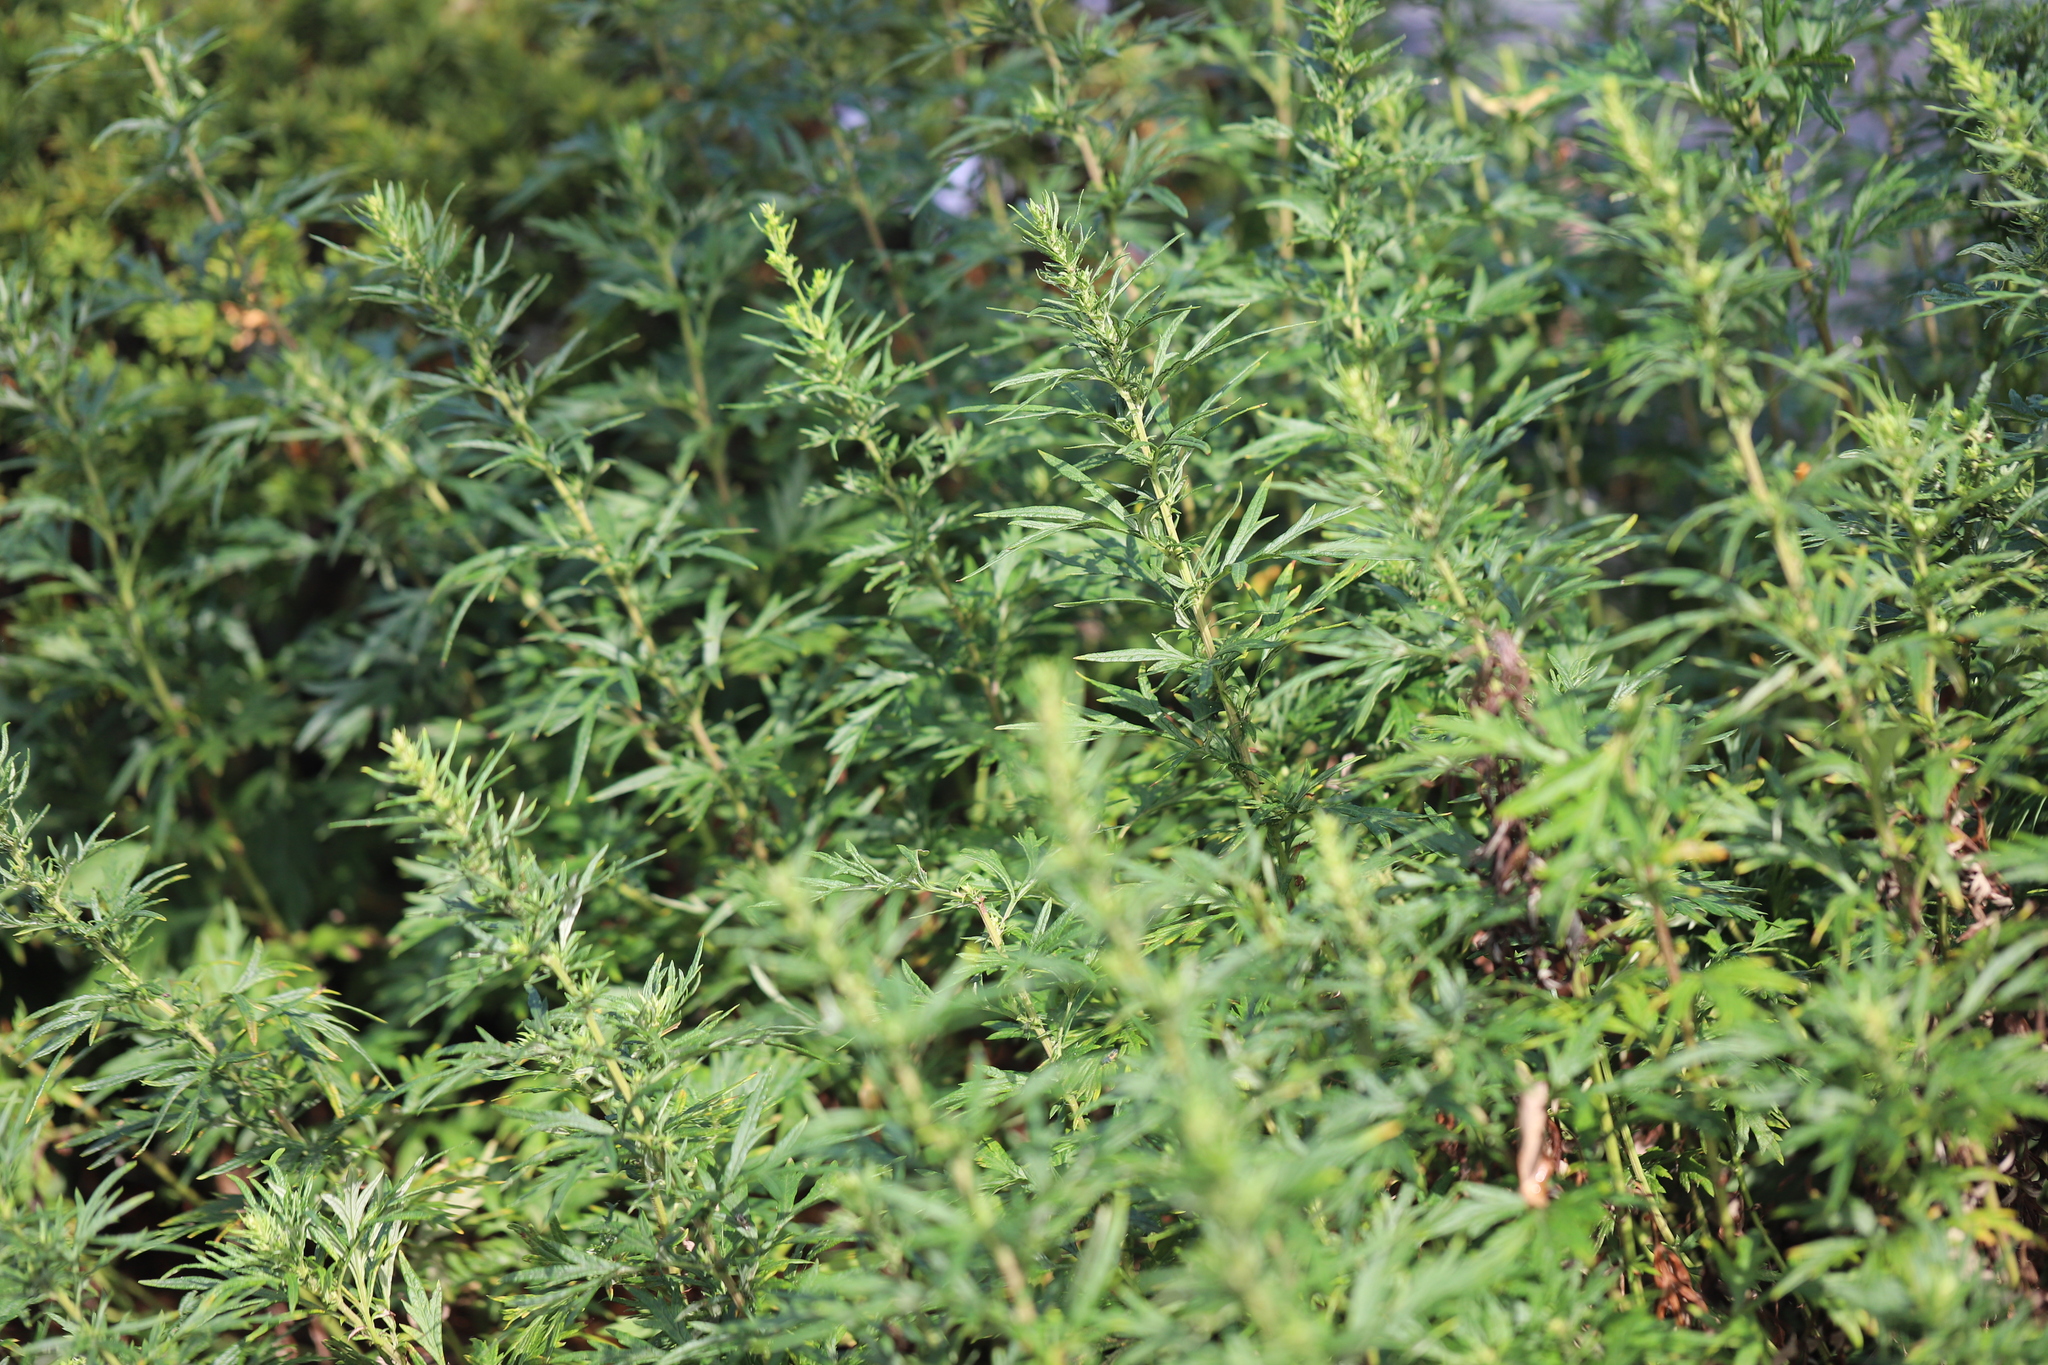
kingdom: Plantae
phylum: Tracheophyta
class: Magnoliopsida
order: Asterales
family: Asteraceae
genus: Artemisia
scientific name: Artemisia vulgaris
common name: Mugwort
